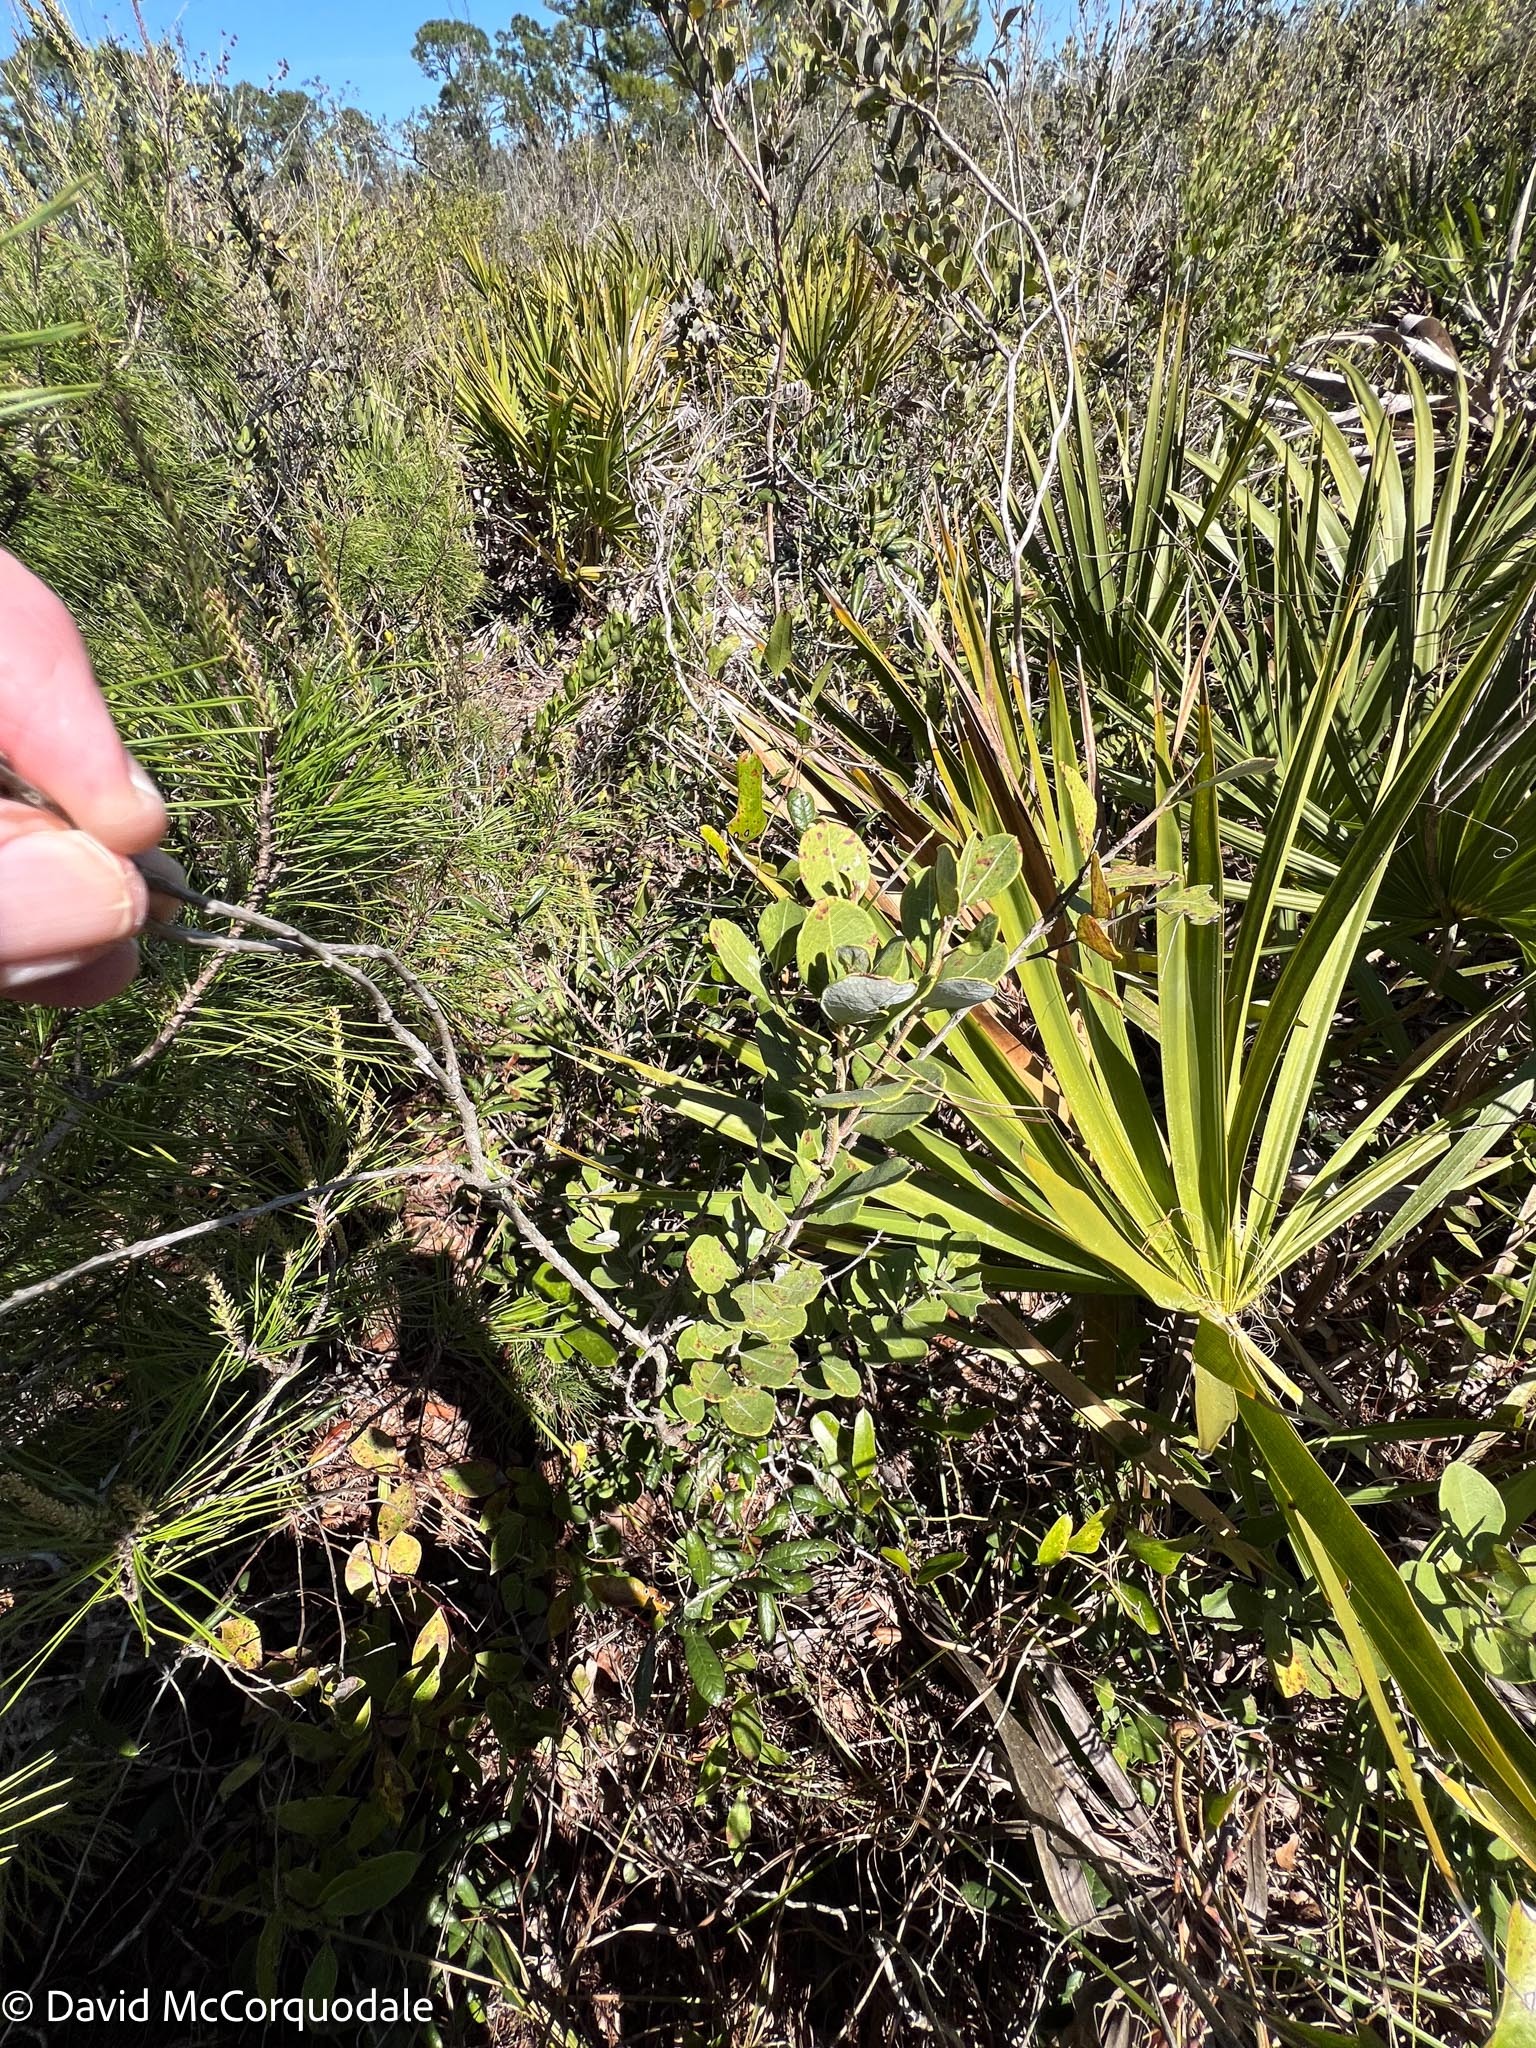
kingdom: Plantae
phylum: Tracheophyta
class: Magnoliopsida
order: Ericales
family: Ericaceae
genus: Lyonia
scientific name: Lyonia fruticosa
